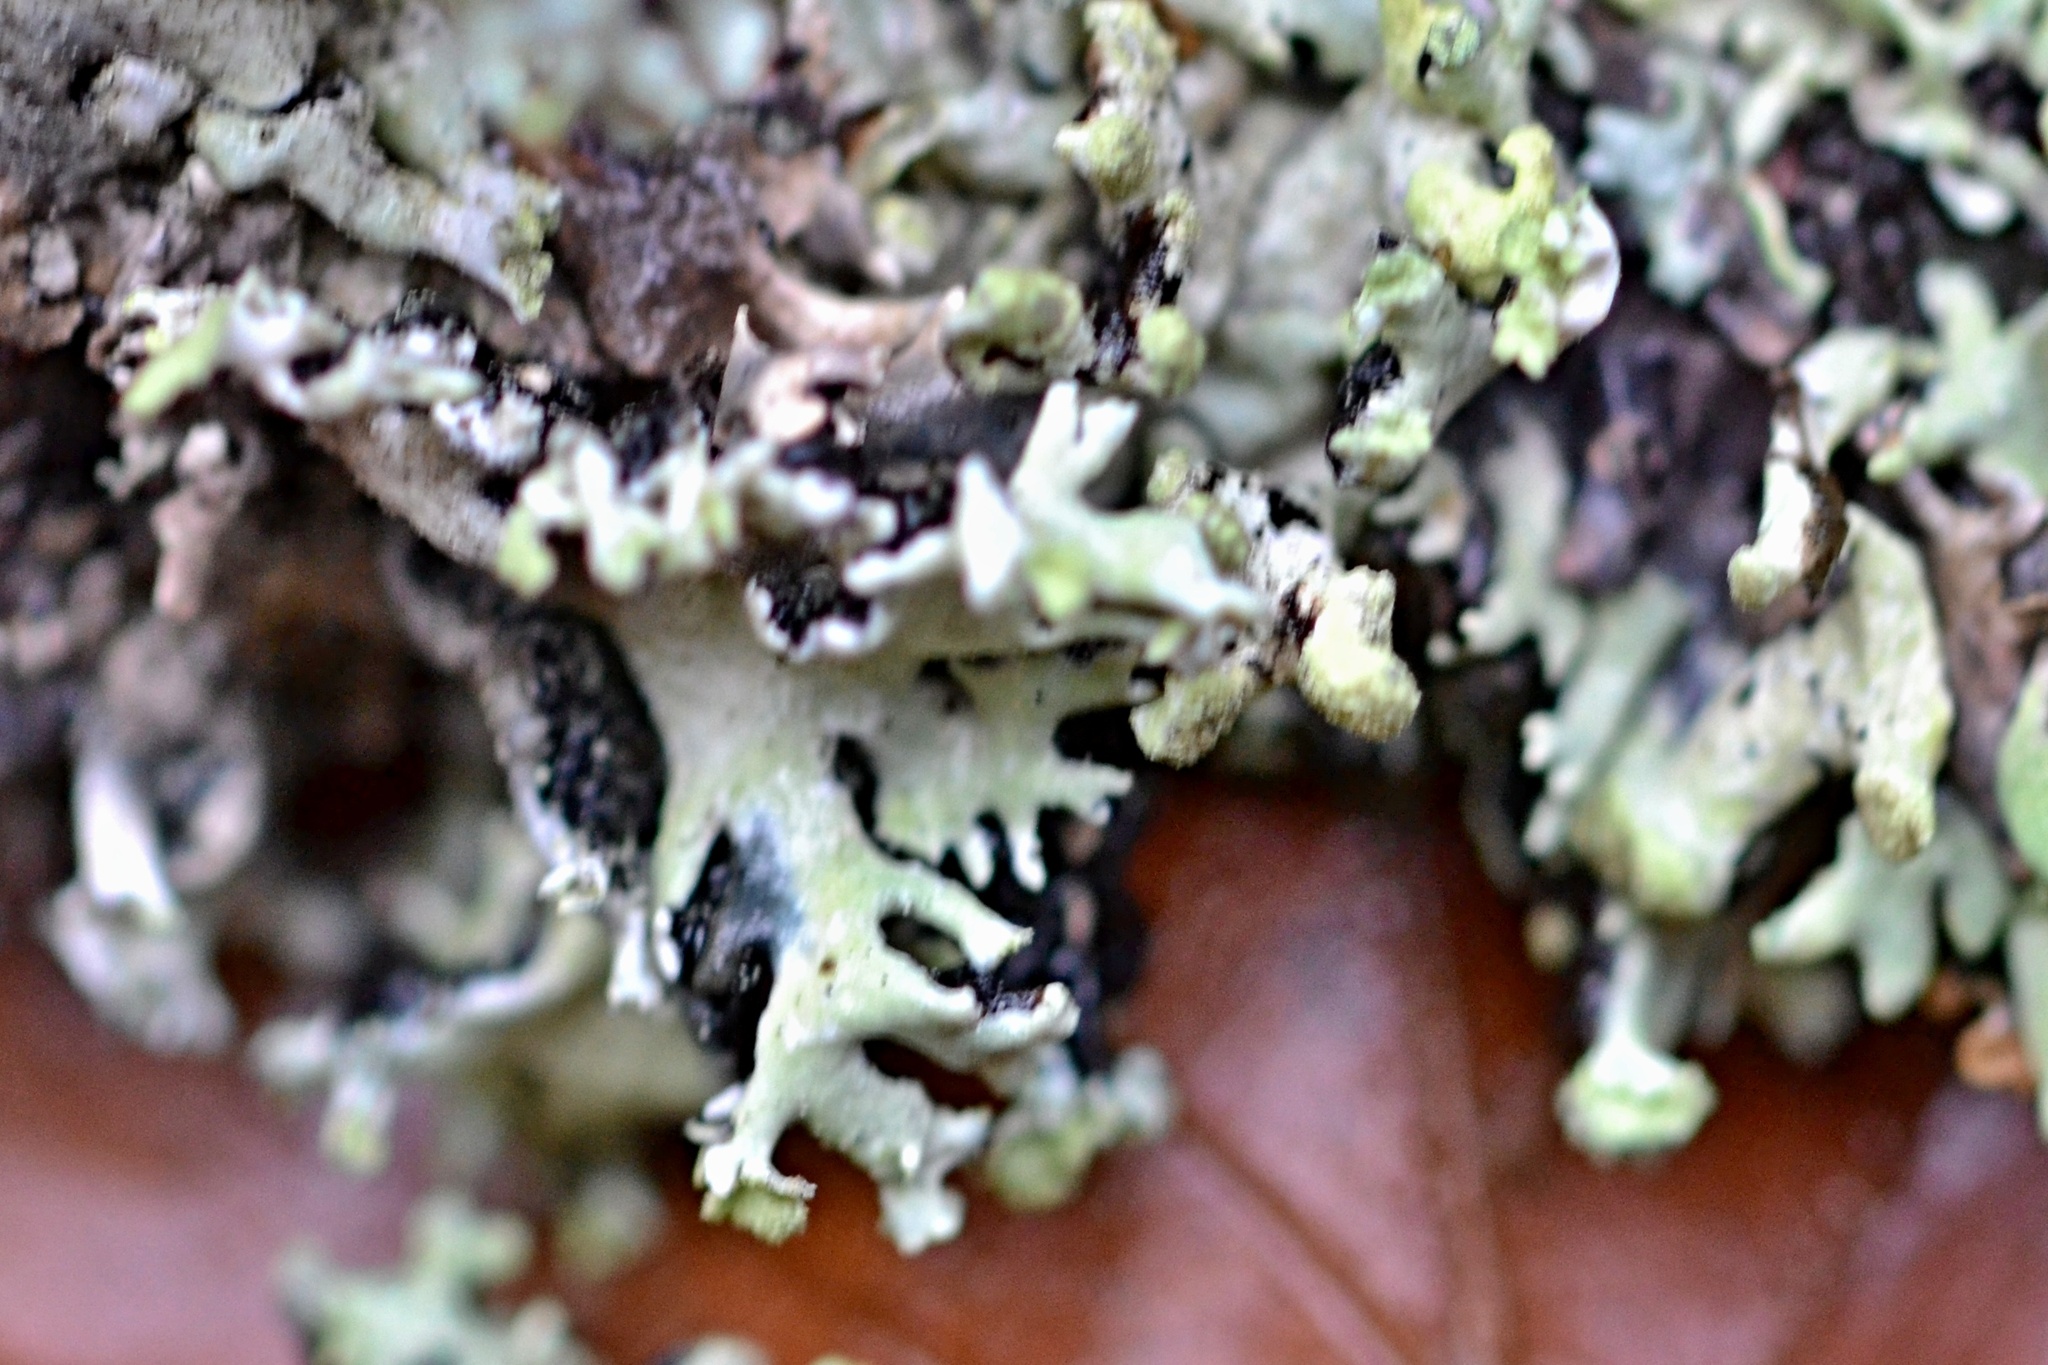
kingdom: Fungi
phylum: Ascomycota
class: Lecanoromycetes
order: Lecanorales
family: Parmeliaceae
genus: Hypogymnia
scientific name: Hypogymnia physodes
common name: Dark crottle
